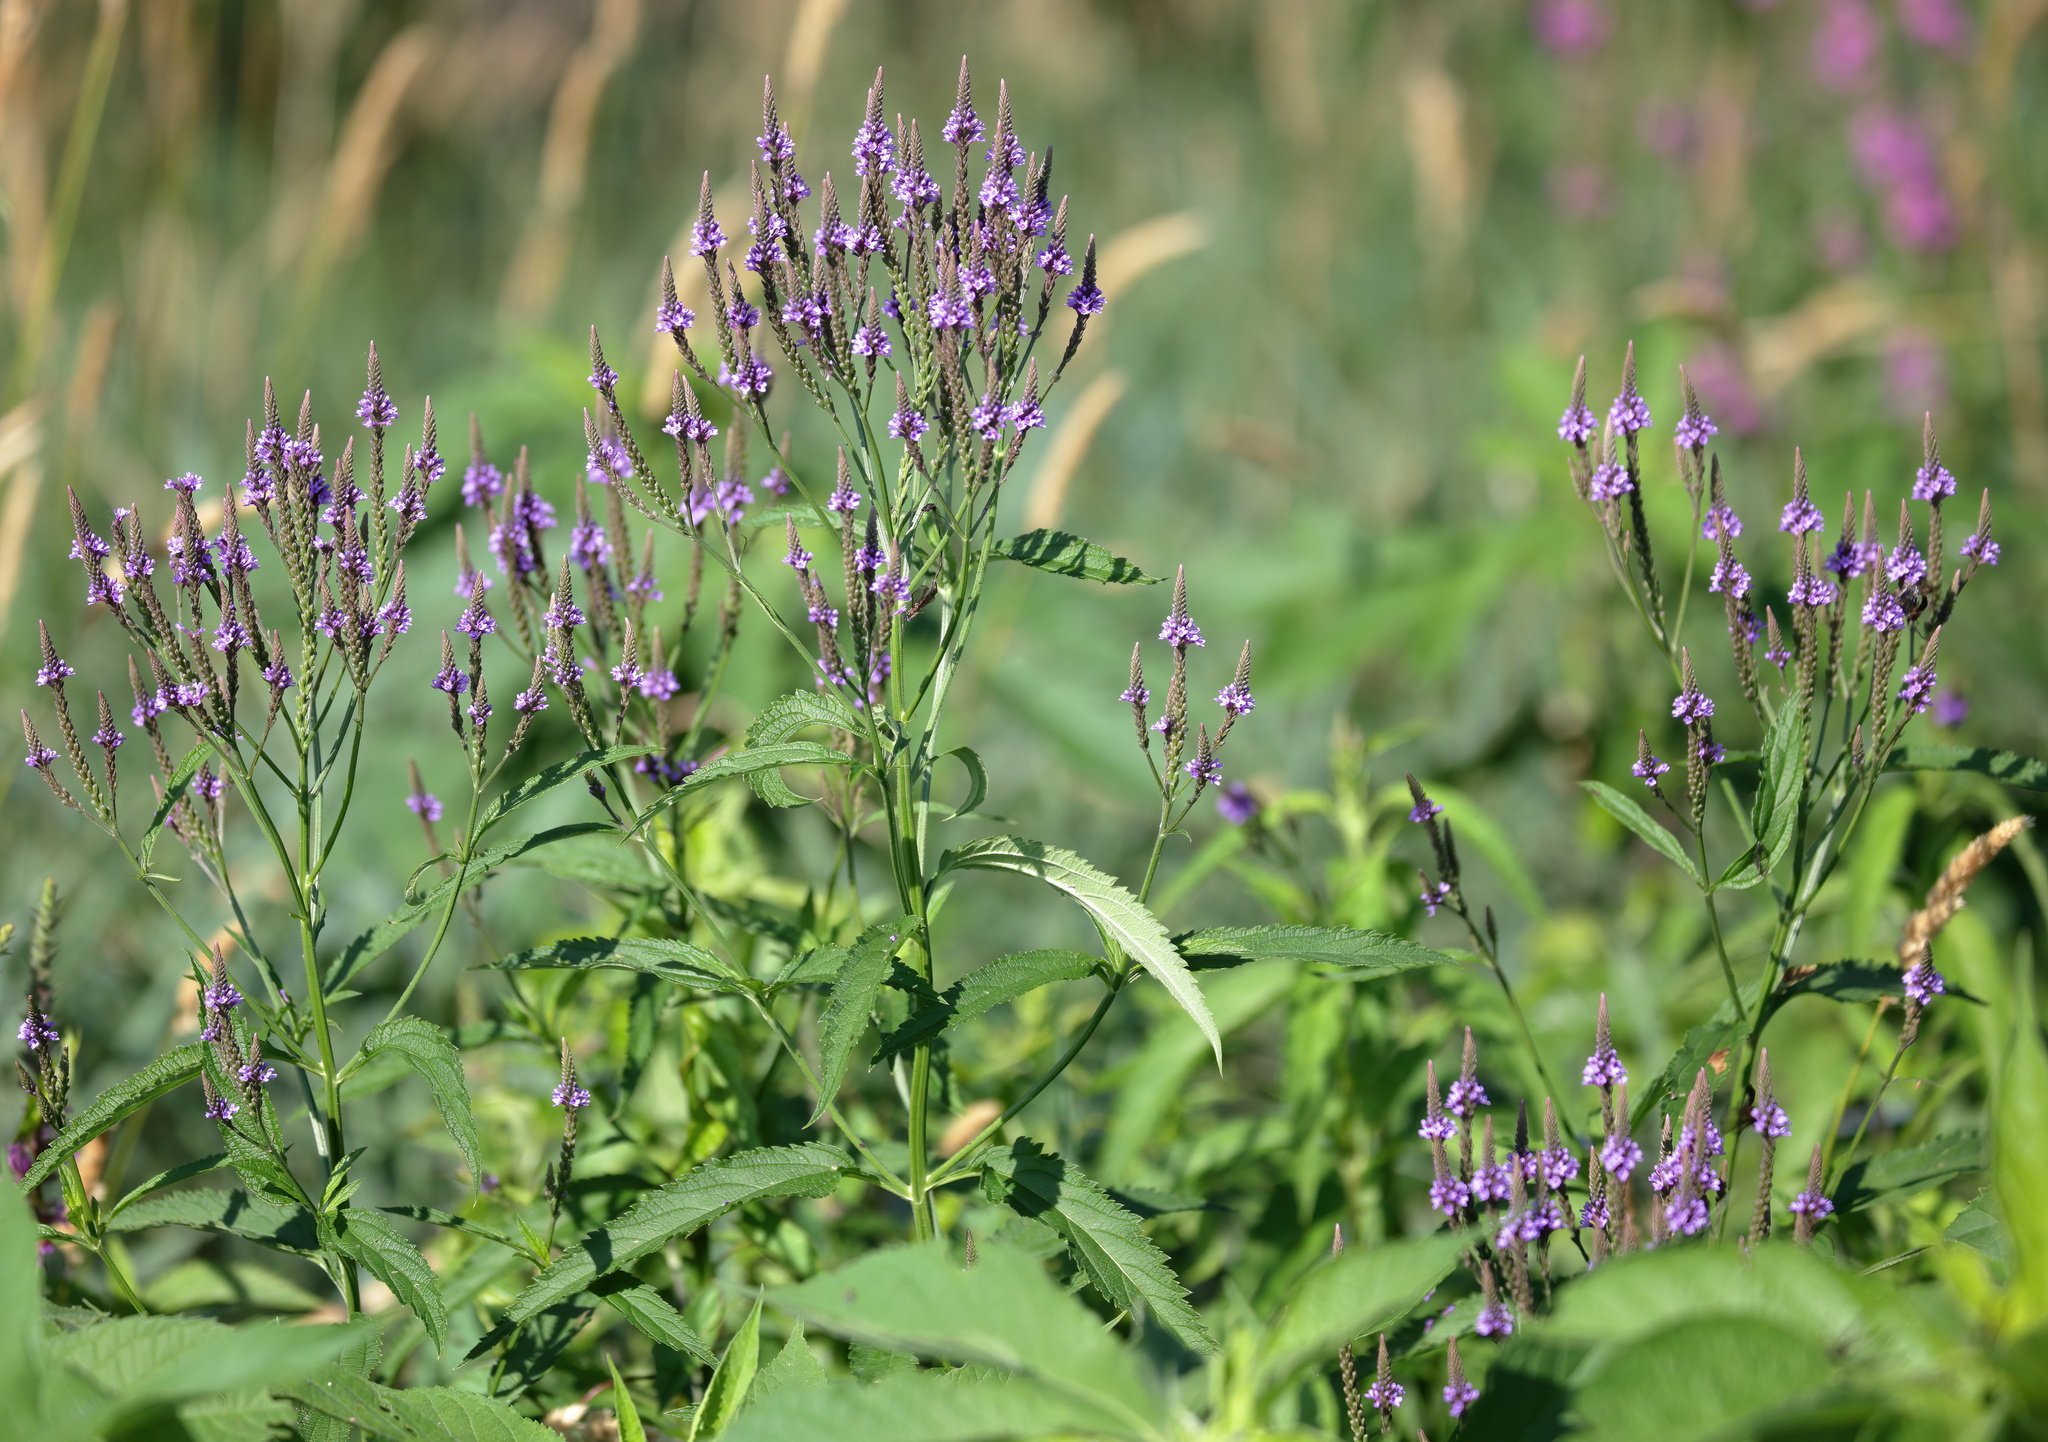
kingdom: Plantae
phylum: Tracheophyta
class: Magnoliopsida
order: Lamiales
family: Verbenaceae
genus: Verbena
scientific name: Verbena hastata
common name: American blue vervain
